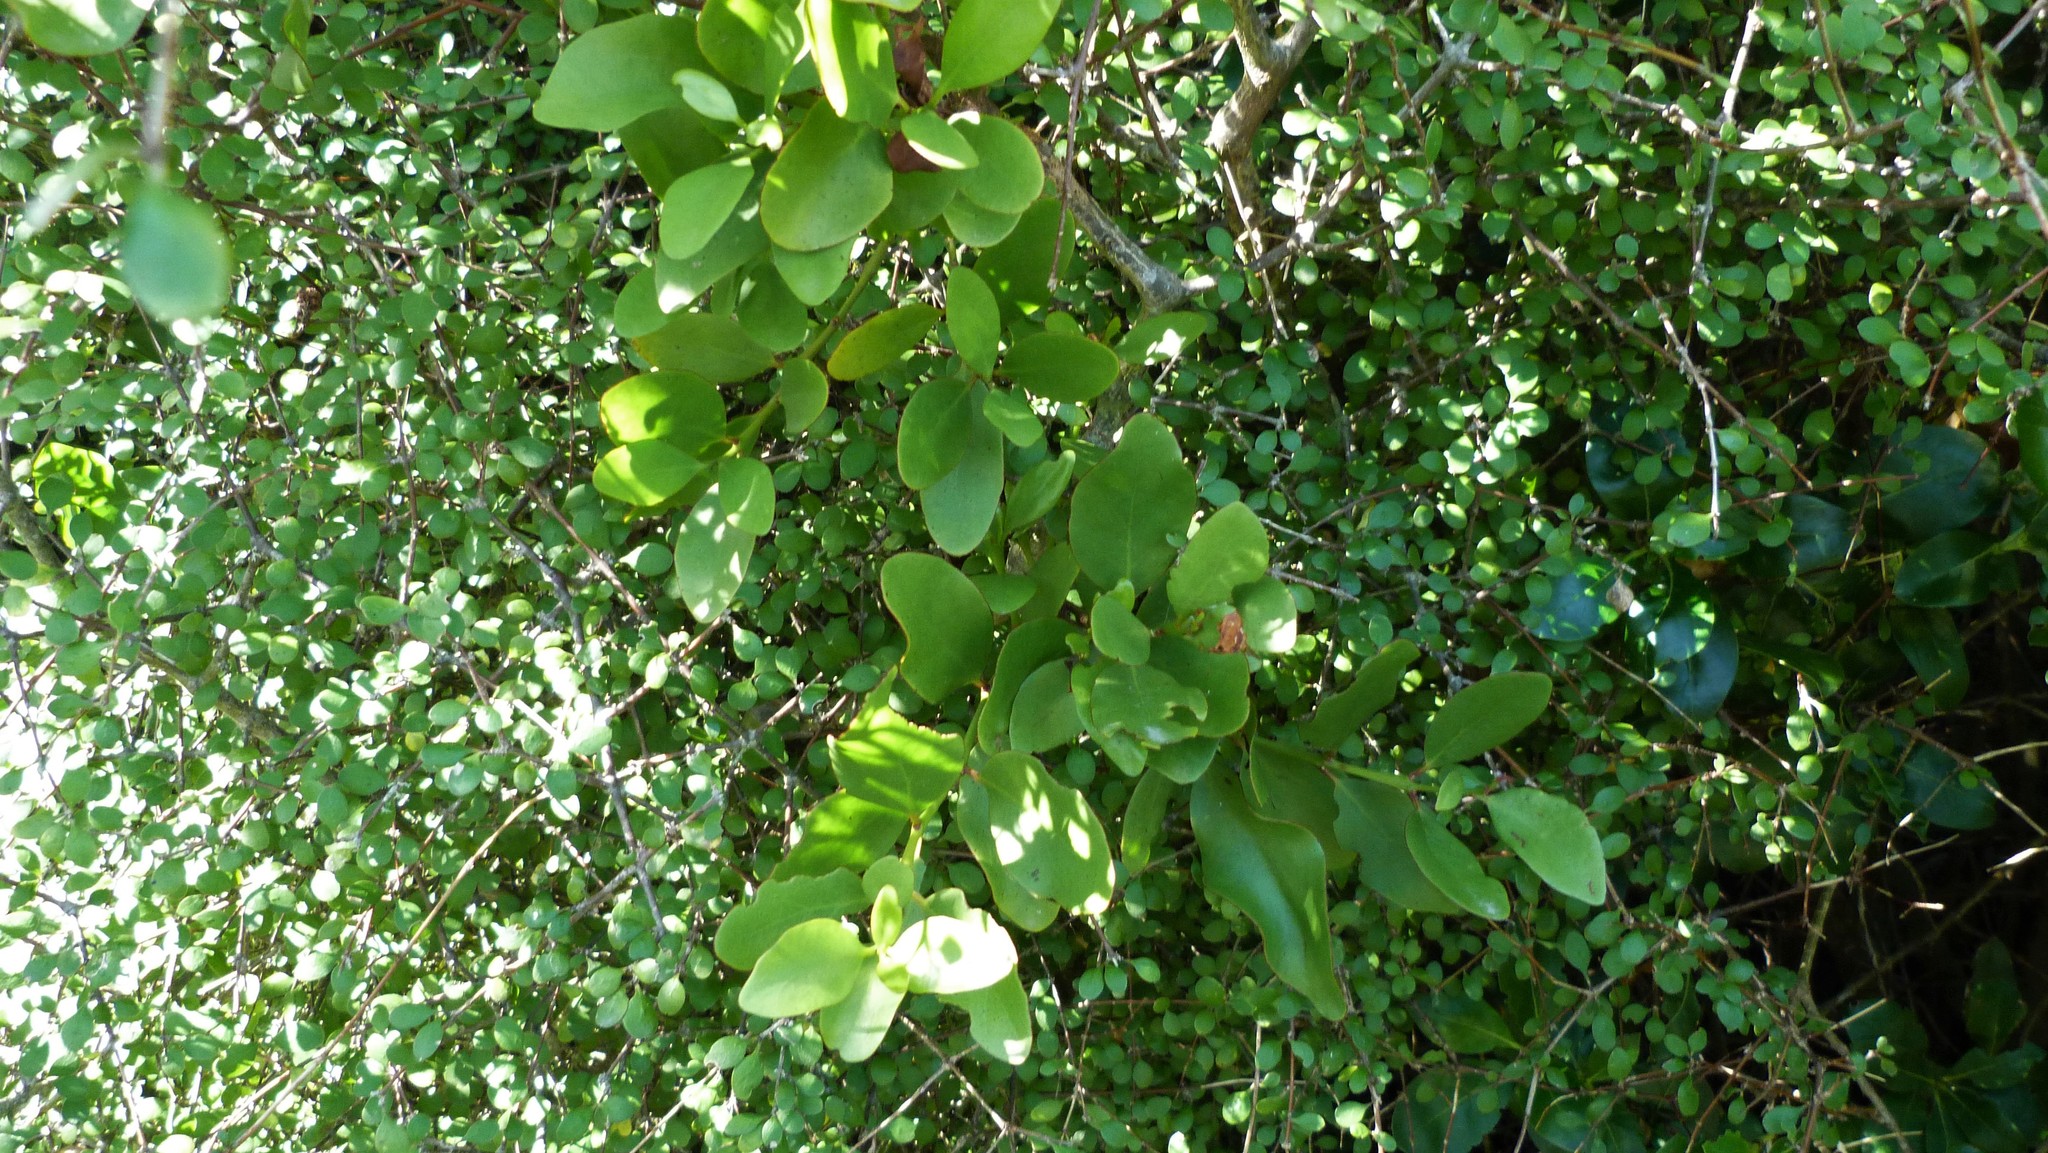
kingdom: Plantae
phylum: Tracheophyta
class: Magnoliopsida
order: Santalales
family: Loranthaceae
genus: Ileostylus
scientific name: Ileostylus micranthus
